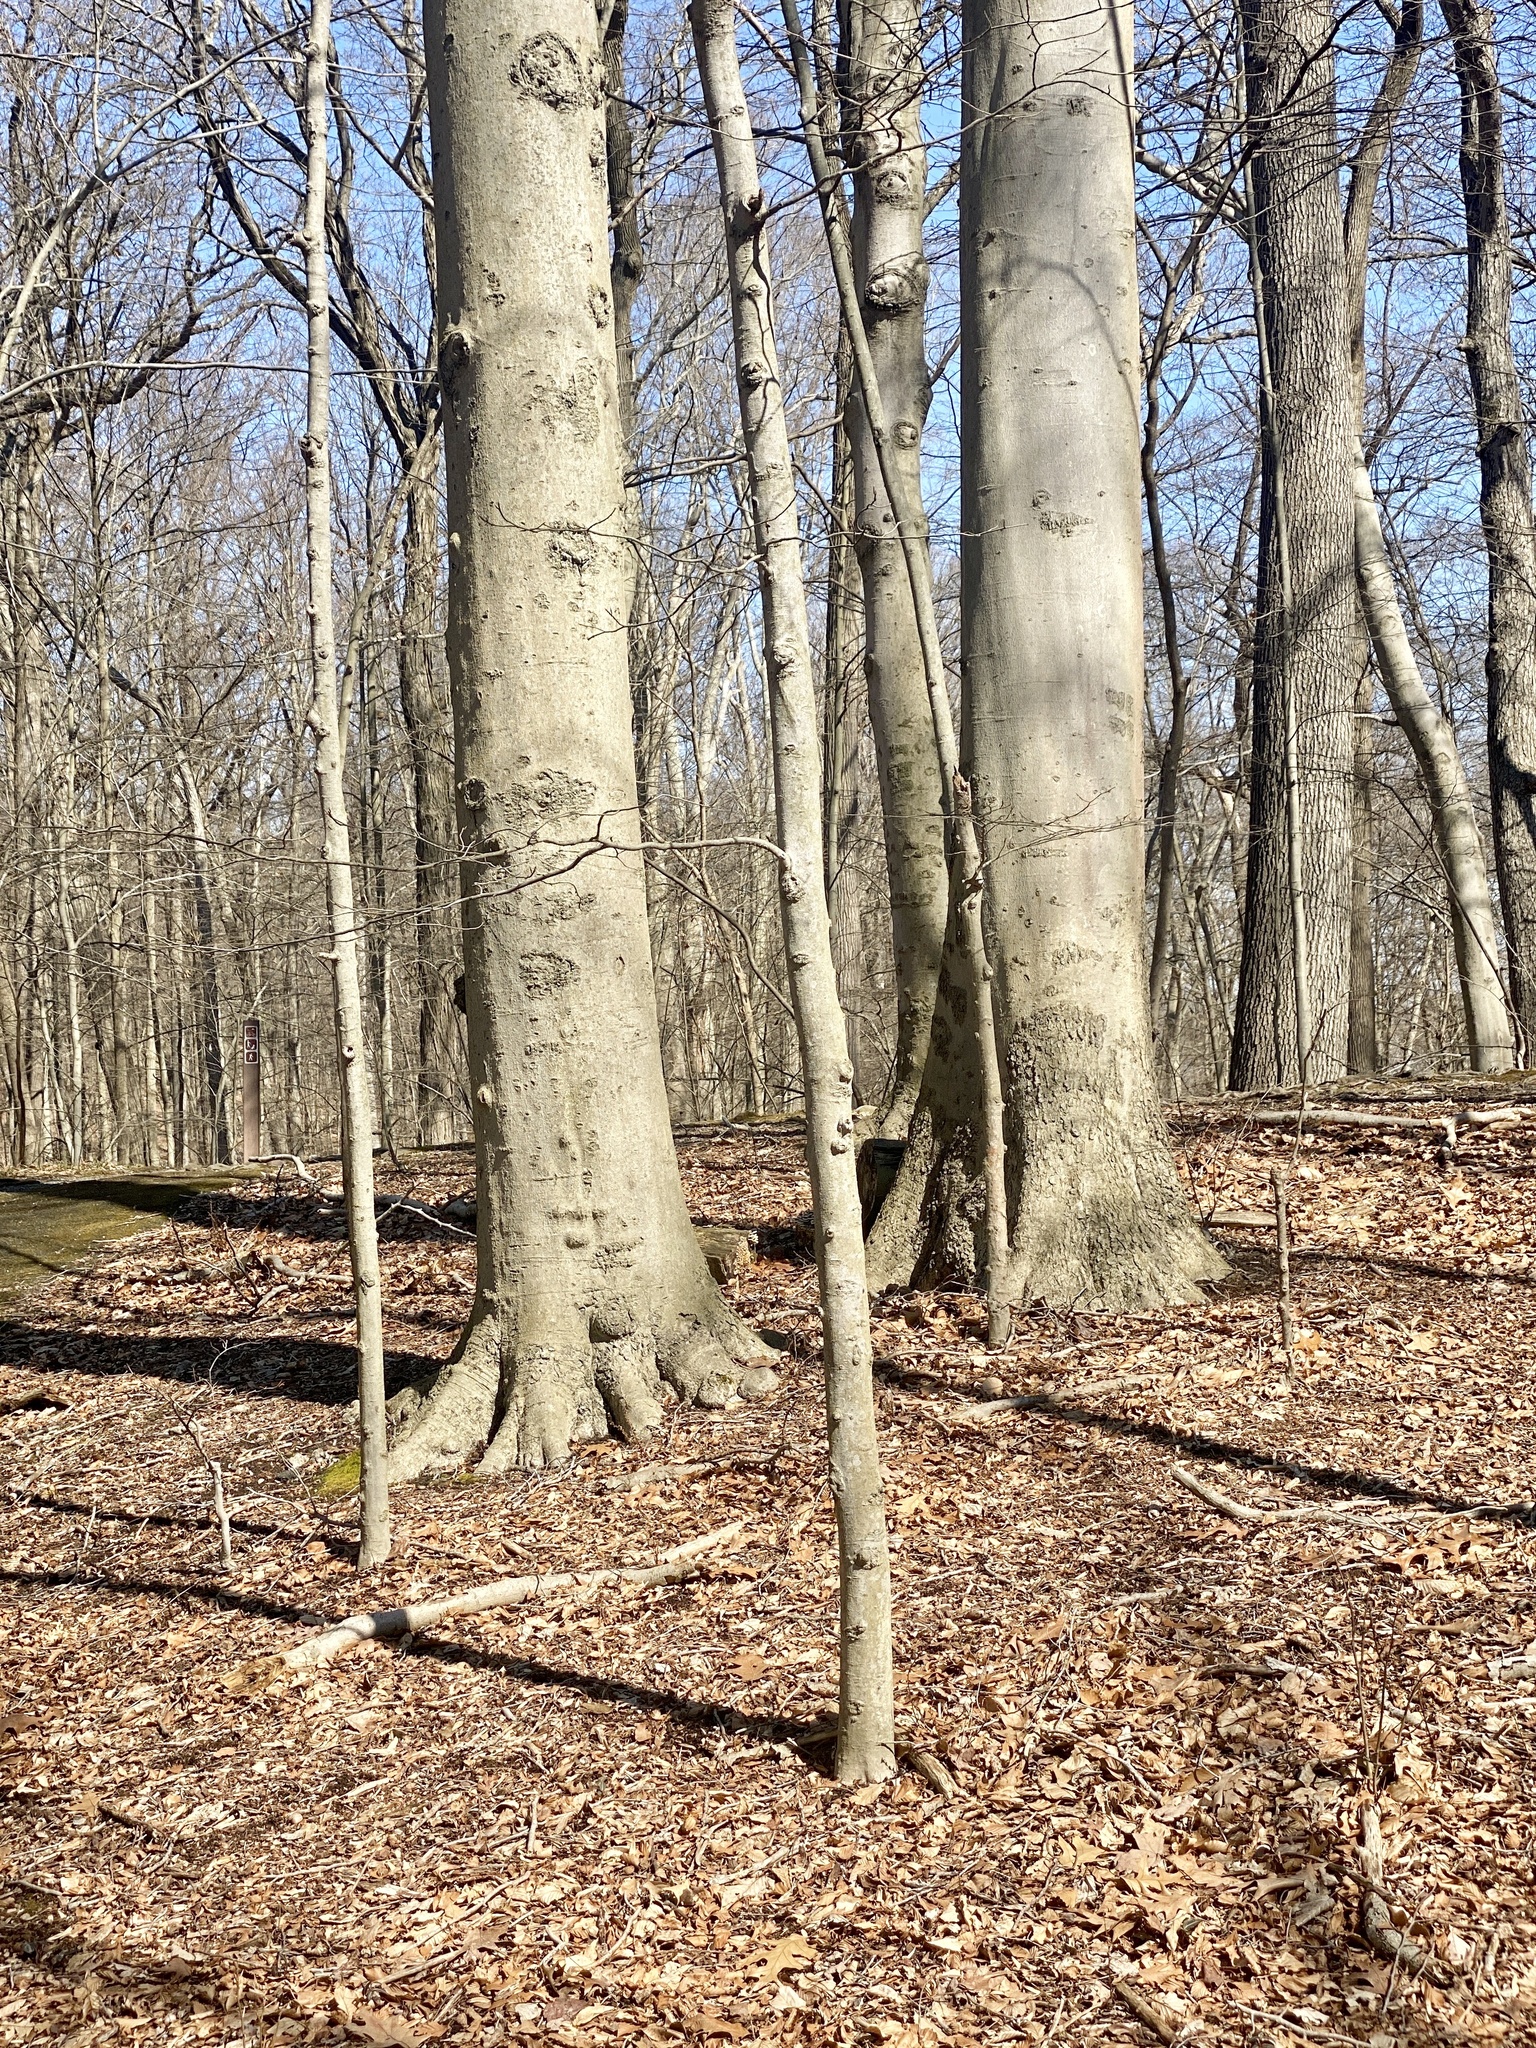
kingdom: Plantae
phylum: Tracheophyta
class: Magnoliopsida
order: Fagales
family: Fagaceae
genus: Fagus
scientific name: Fagus grandifolia
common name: American beech
